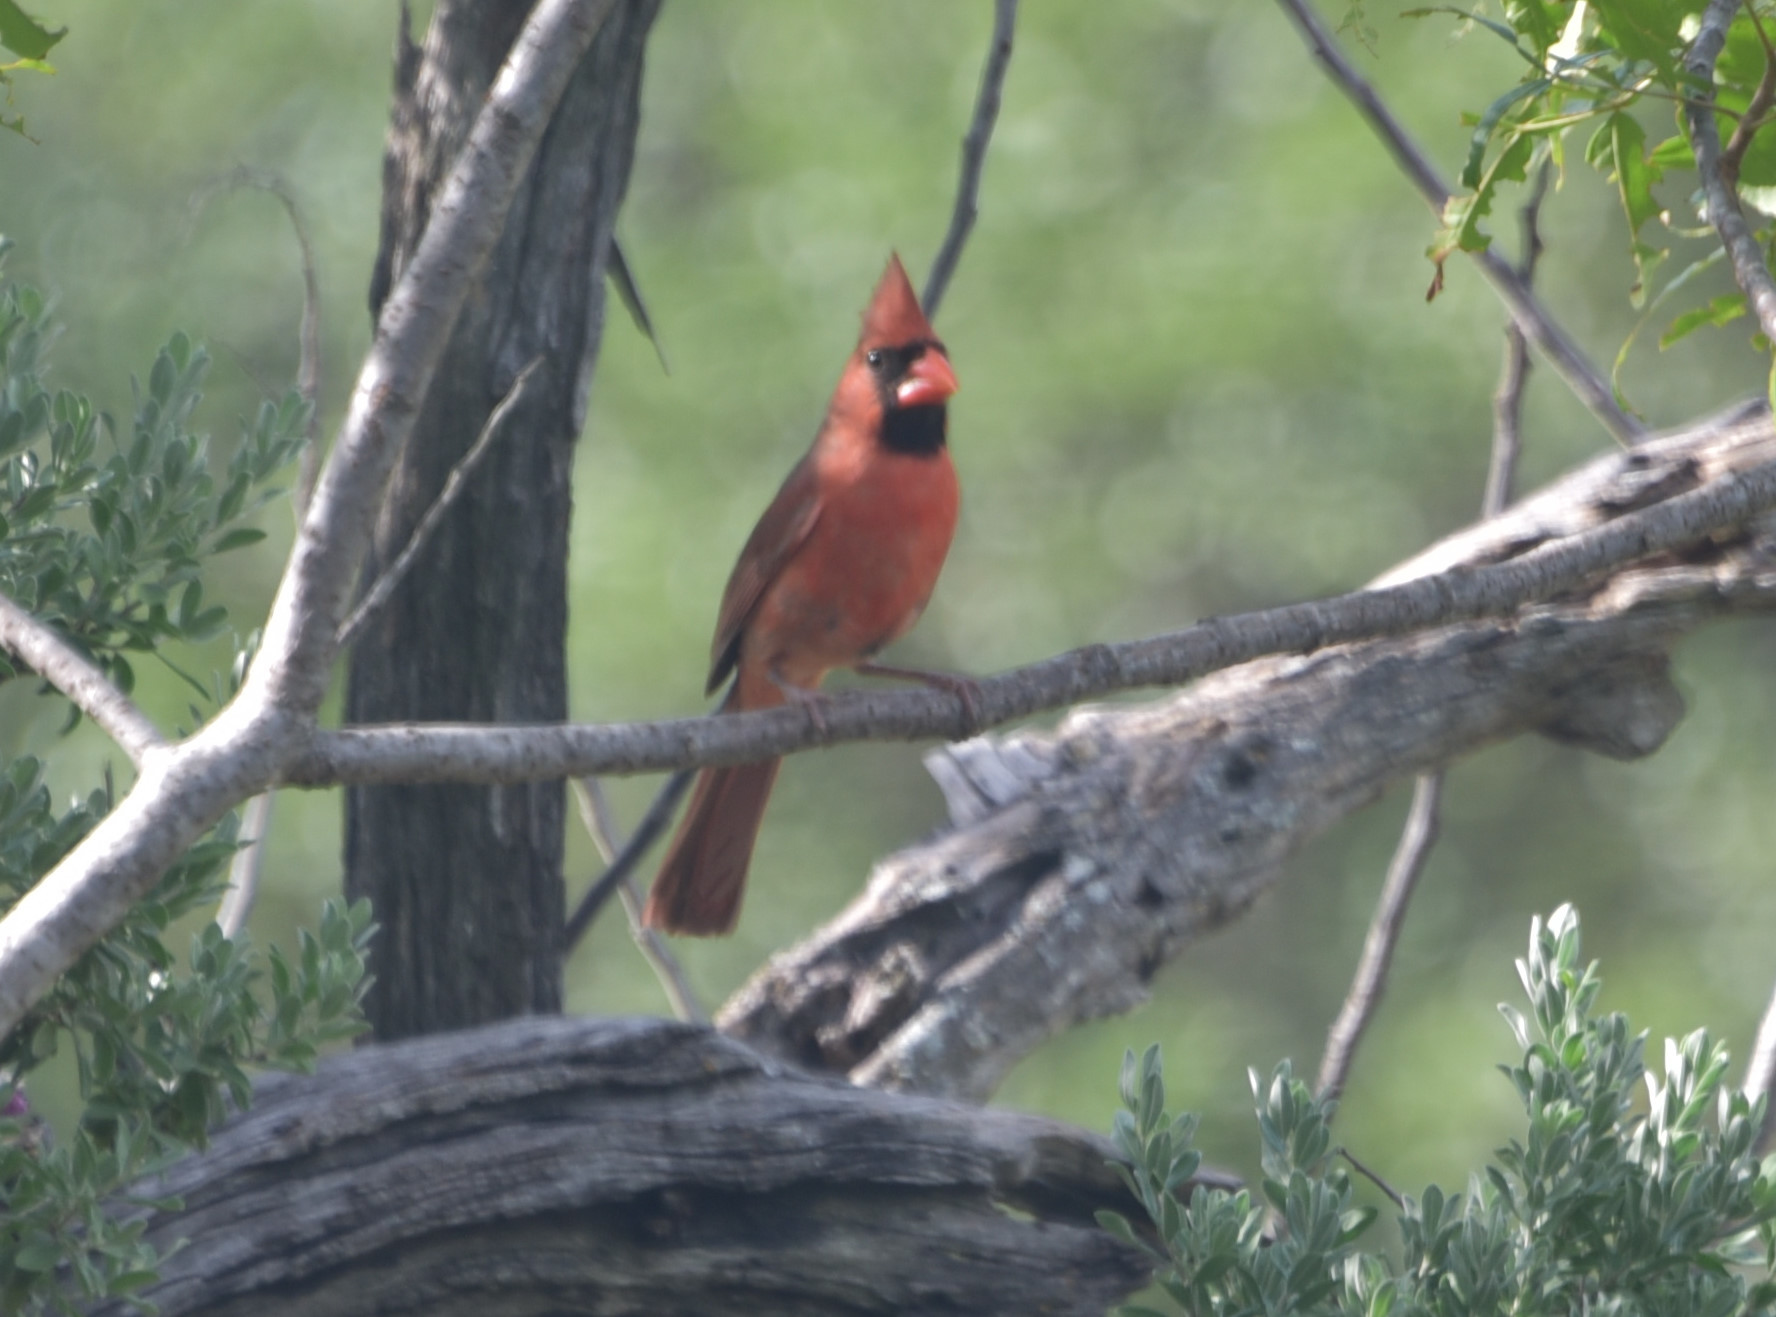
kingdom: Animalia
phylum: Chordata
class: Aves
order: Passeriformes
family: Cardinalidae
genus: Cardinalis
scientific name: Cardinalis cardinalis
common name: Northern cardinal
